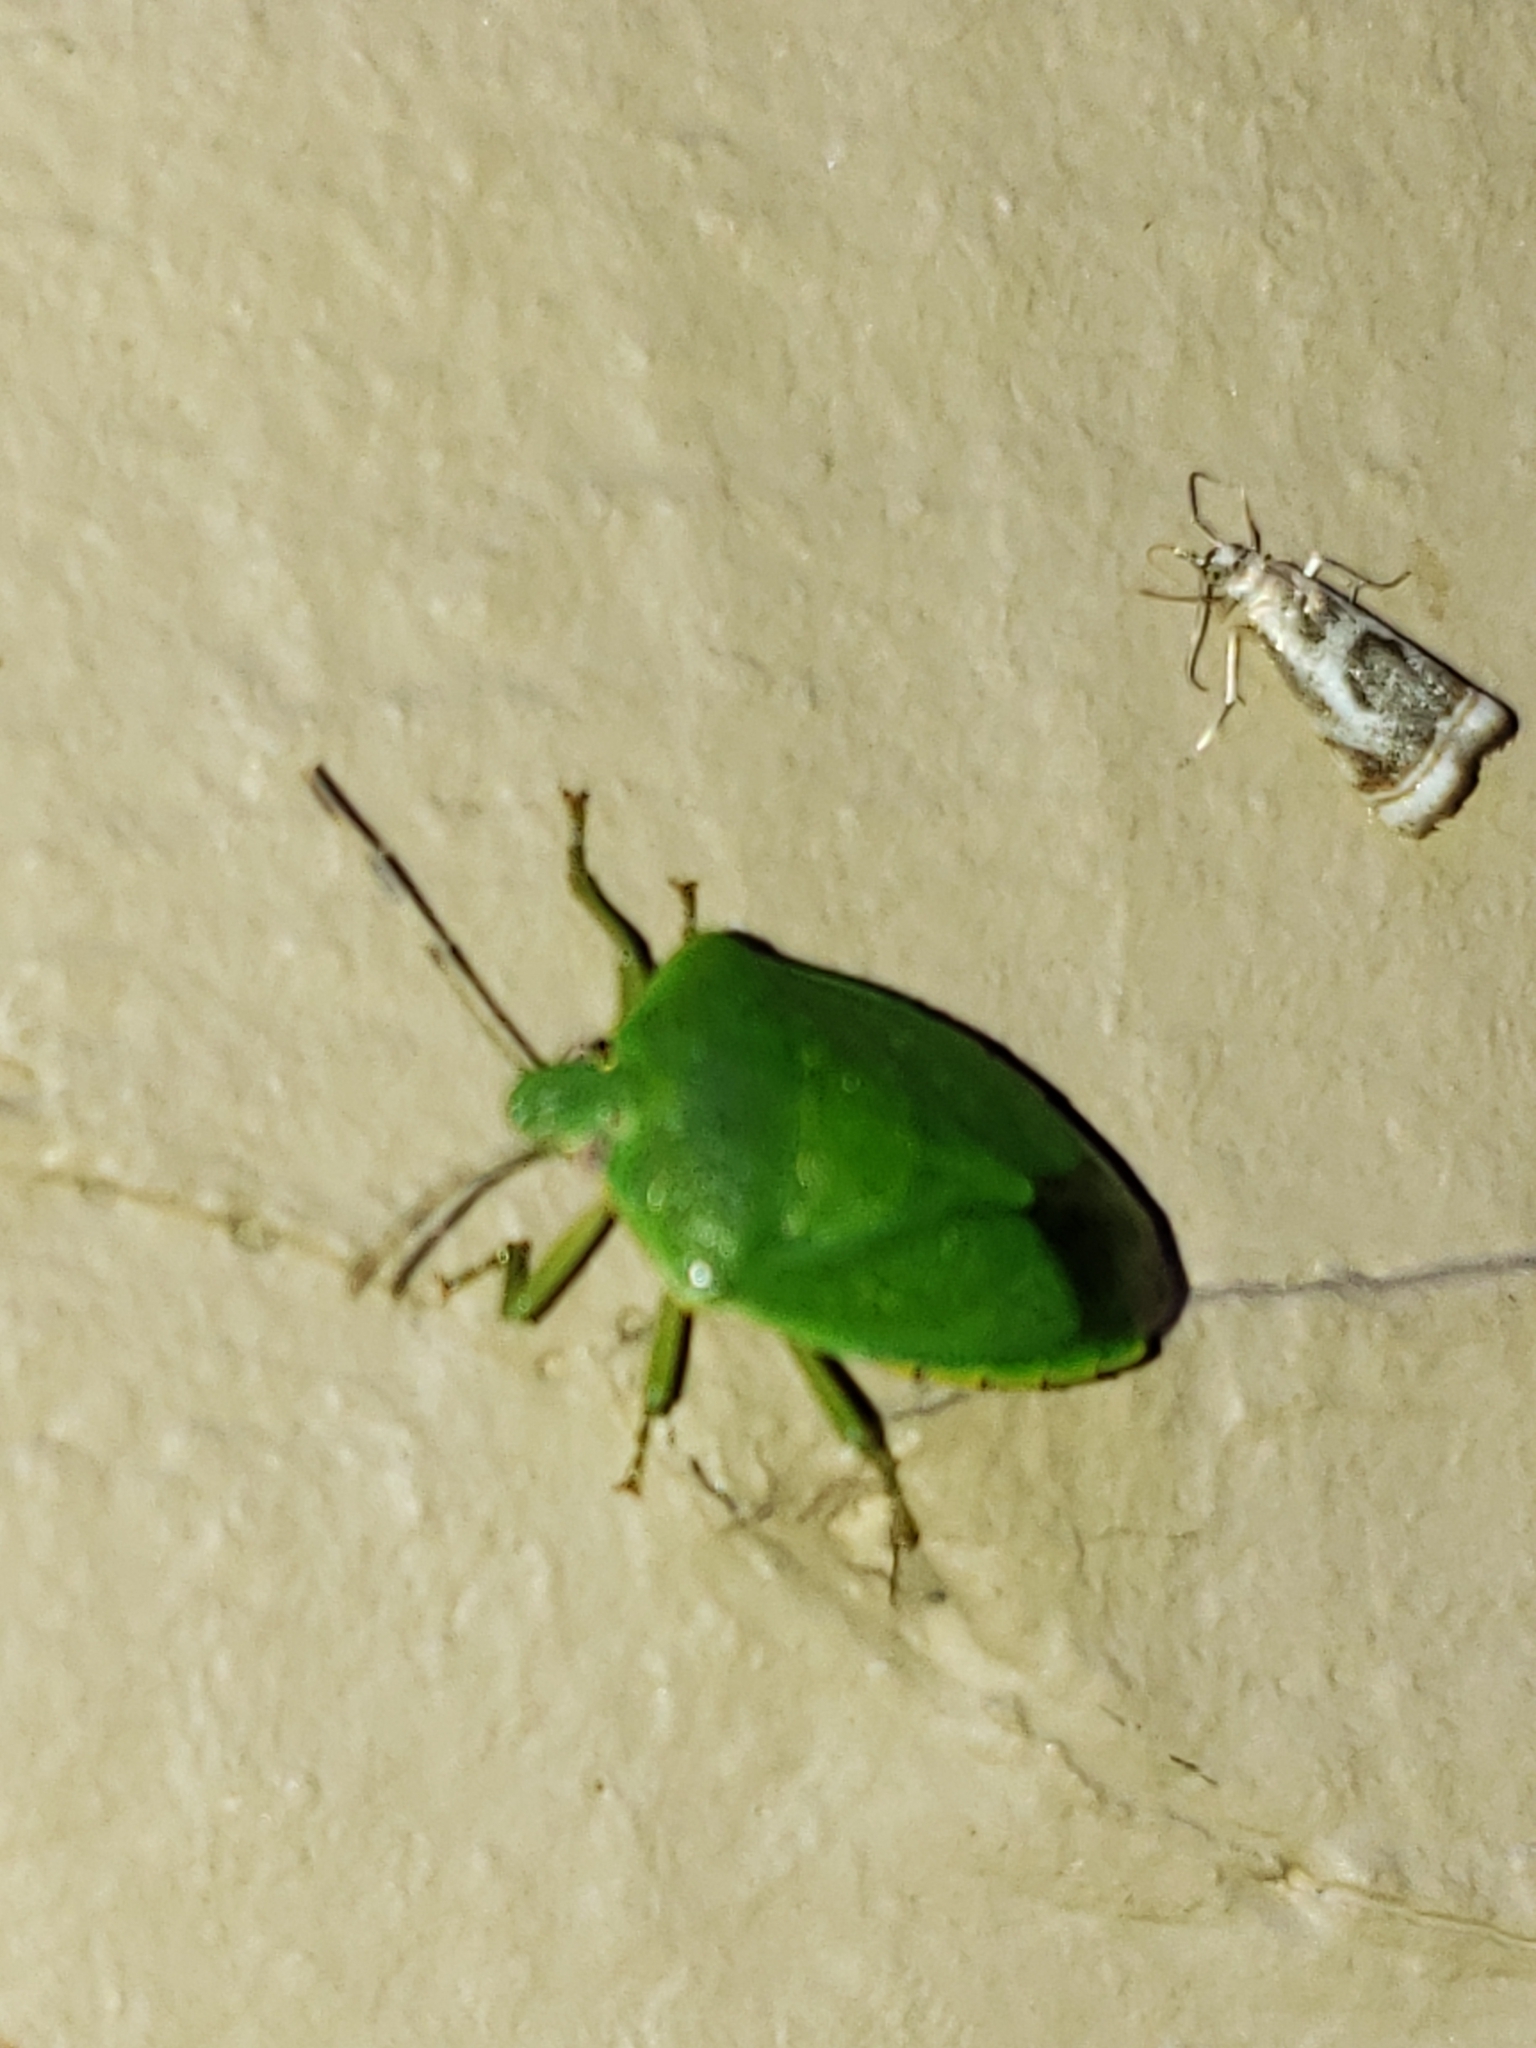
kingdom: Animalia
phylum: Arthropoda
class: Insecta
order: Hemiptera
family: Pentatomidae
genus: Chinavia
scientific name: Chinavia hilaris
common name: Green stink bug
